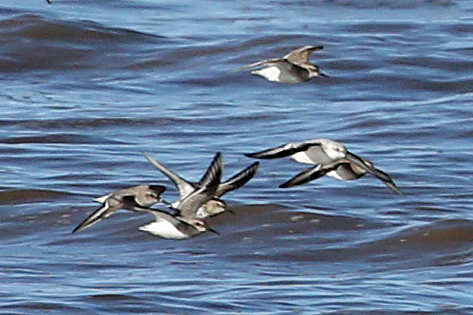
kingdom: Animalia
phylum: Chordata
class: Aves
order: Charadriiformes
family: Scolopacidae
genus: Calidris
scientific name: Calidris alpina
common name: Dunlin
